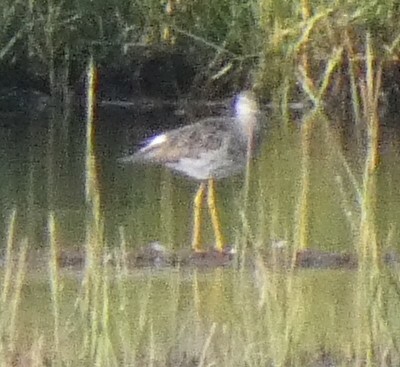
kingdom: Animalia
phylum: Chordata
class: Aves
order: Charadriiformes
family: Scolopacidae
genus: Tringa
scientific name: Tringa melanoleuca
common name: Greater yellowlegs
